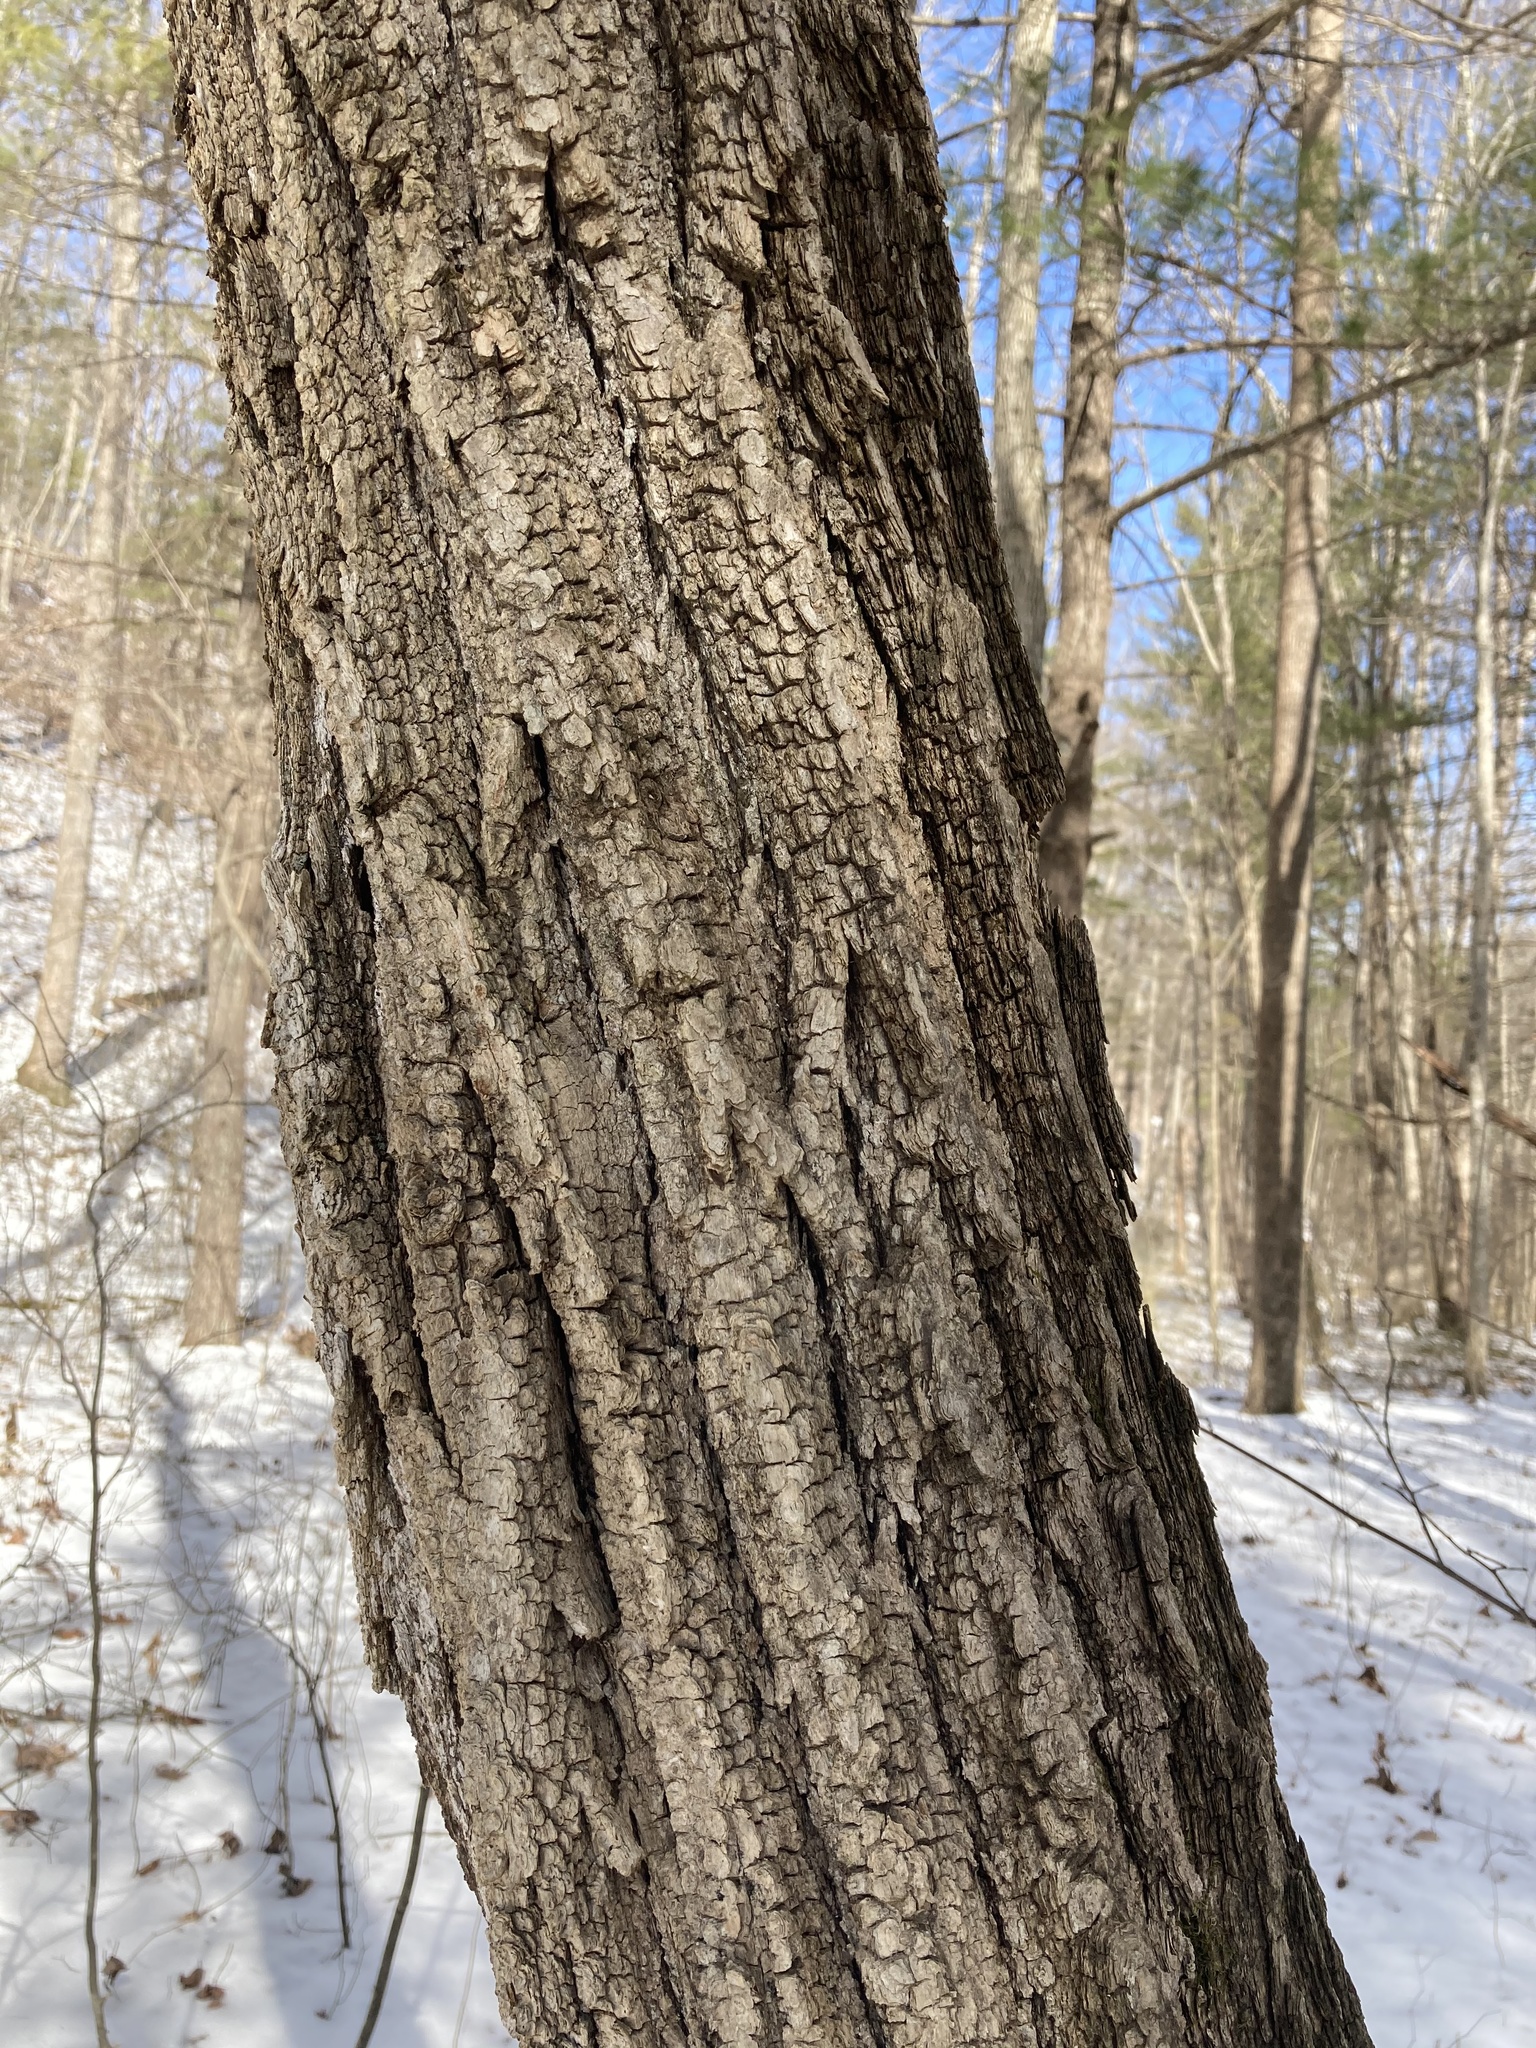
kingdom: Plantae
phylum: Tracheophyta
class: Magnoliopsida
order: Fabales
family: Fabaceae
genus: Robinia
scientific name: Robinia pseudoacacia
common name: Black locust
